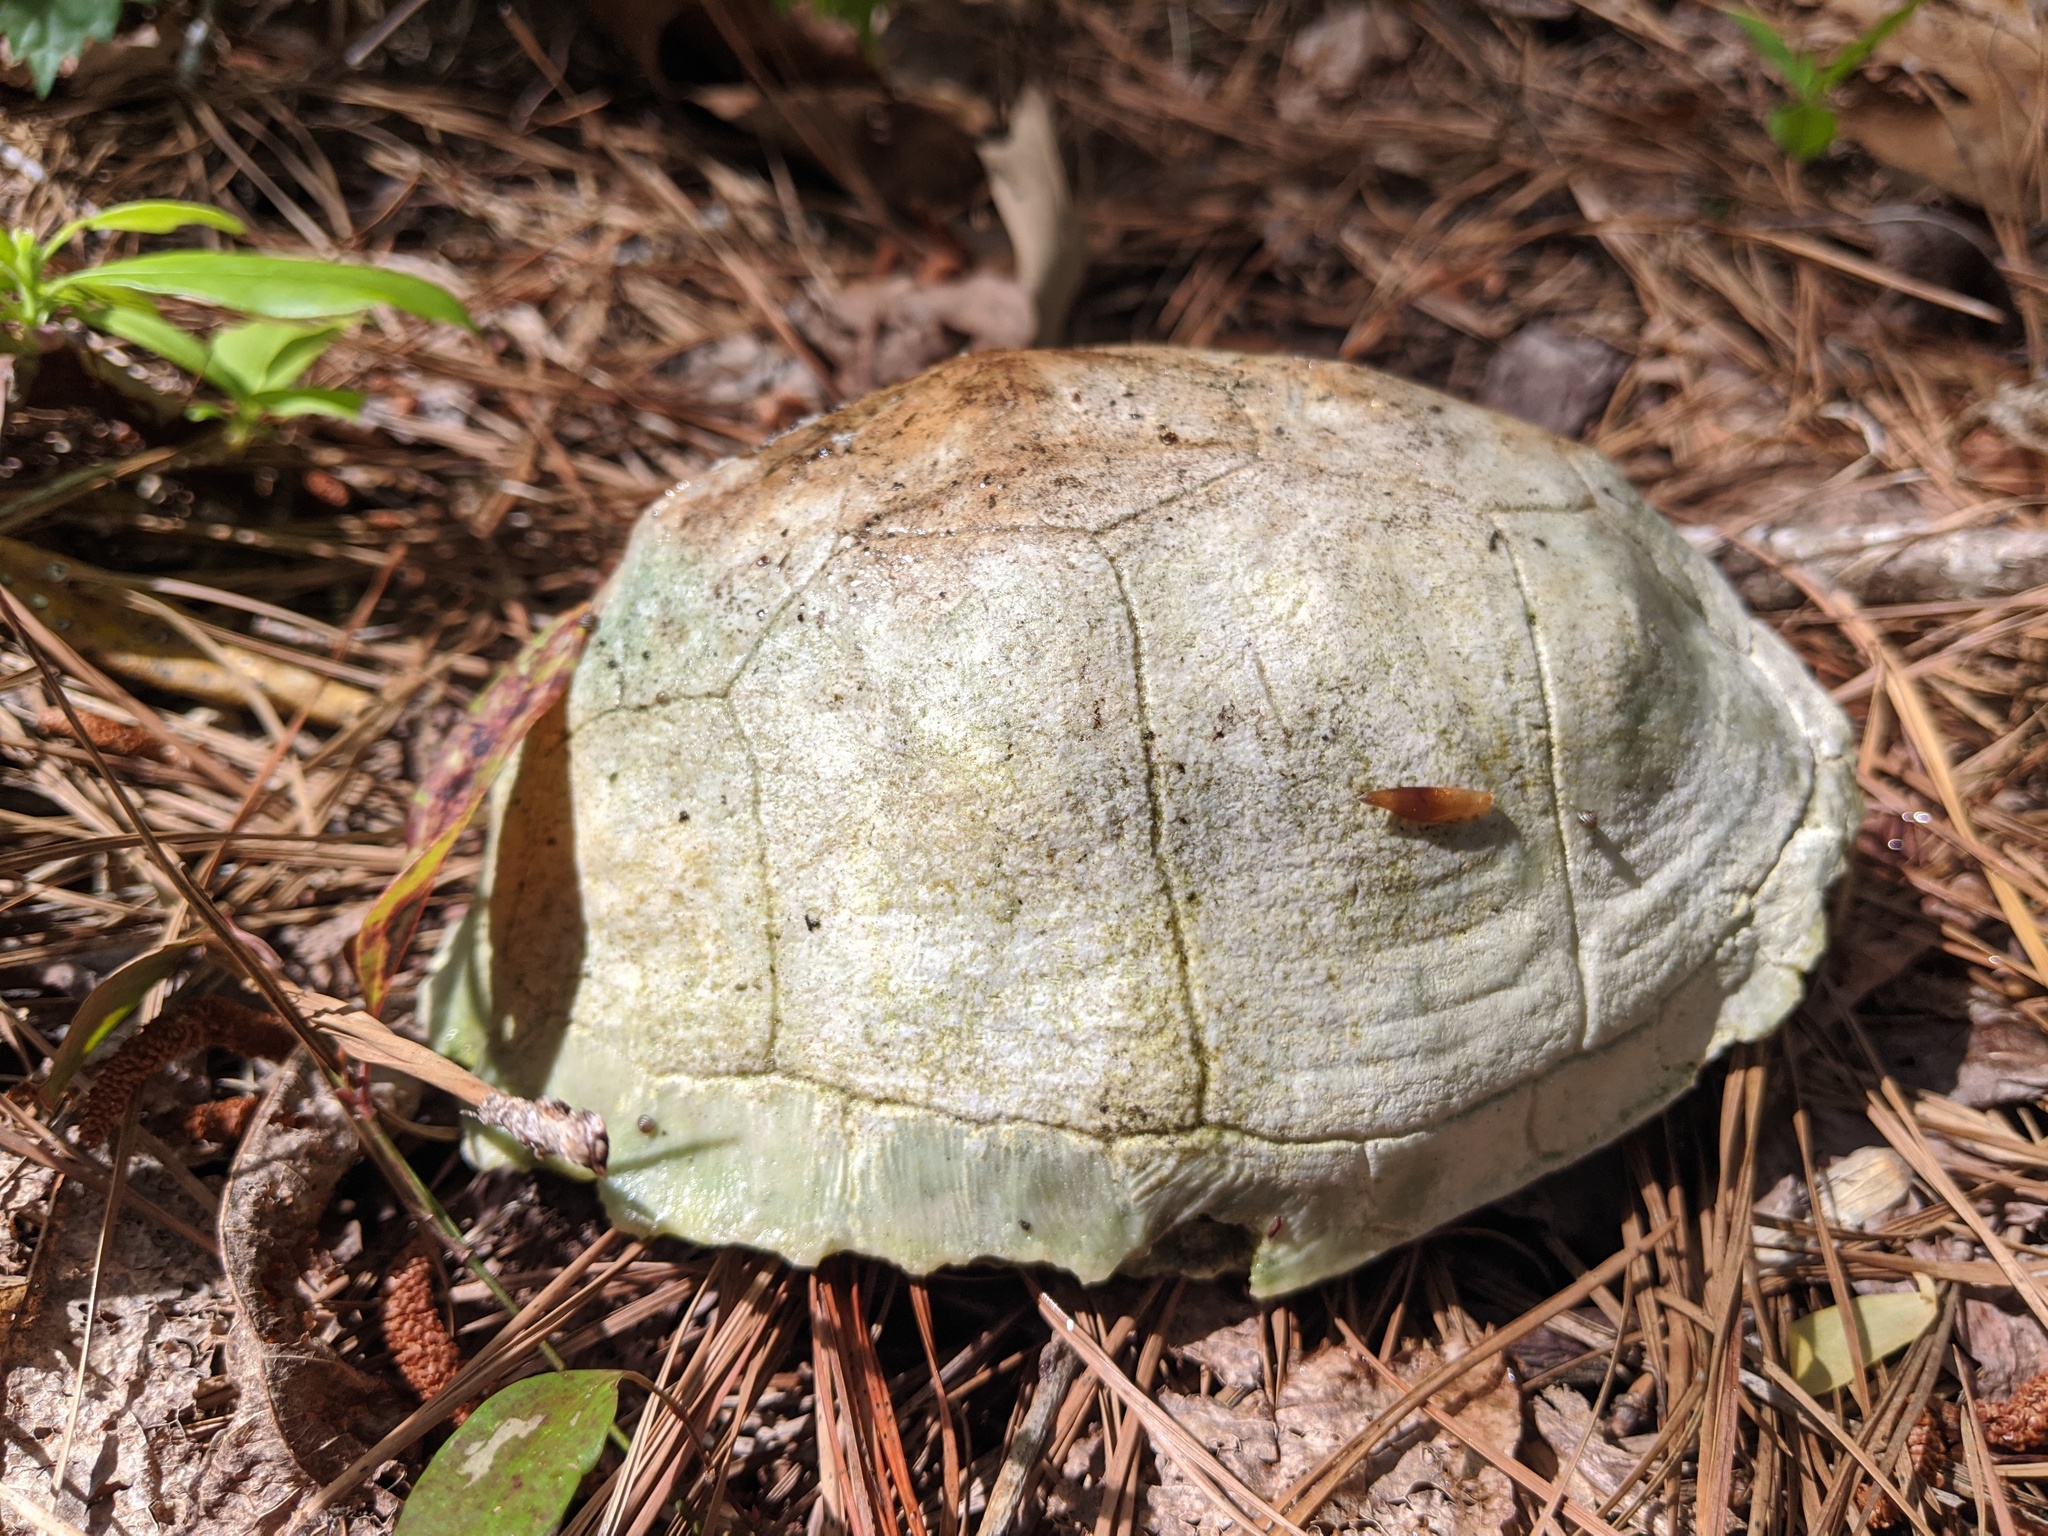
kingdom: Animalia
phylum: Chordata
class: Testudines
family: Emydidae
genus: Terrapene
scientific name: Terrapene carolina
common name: Common box turtle
